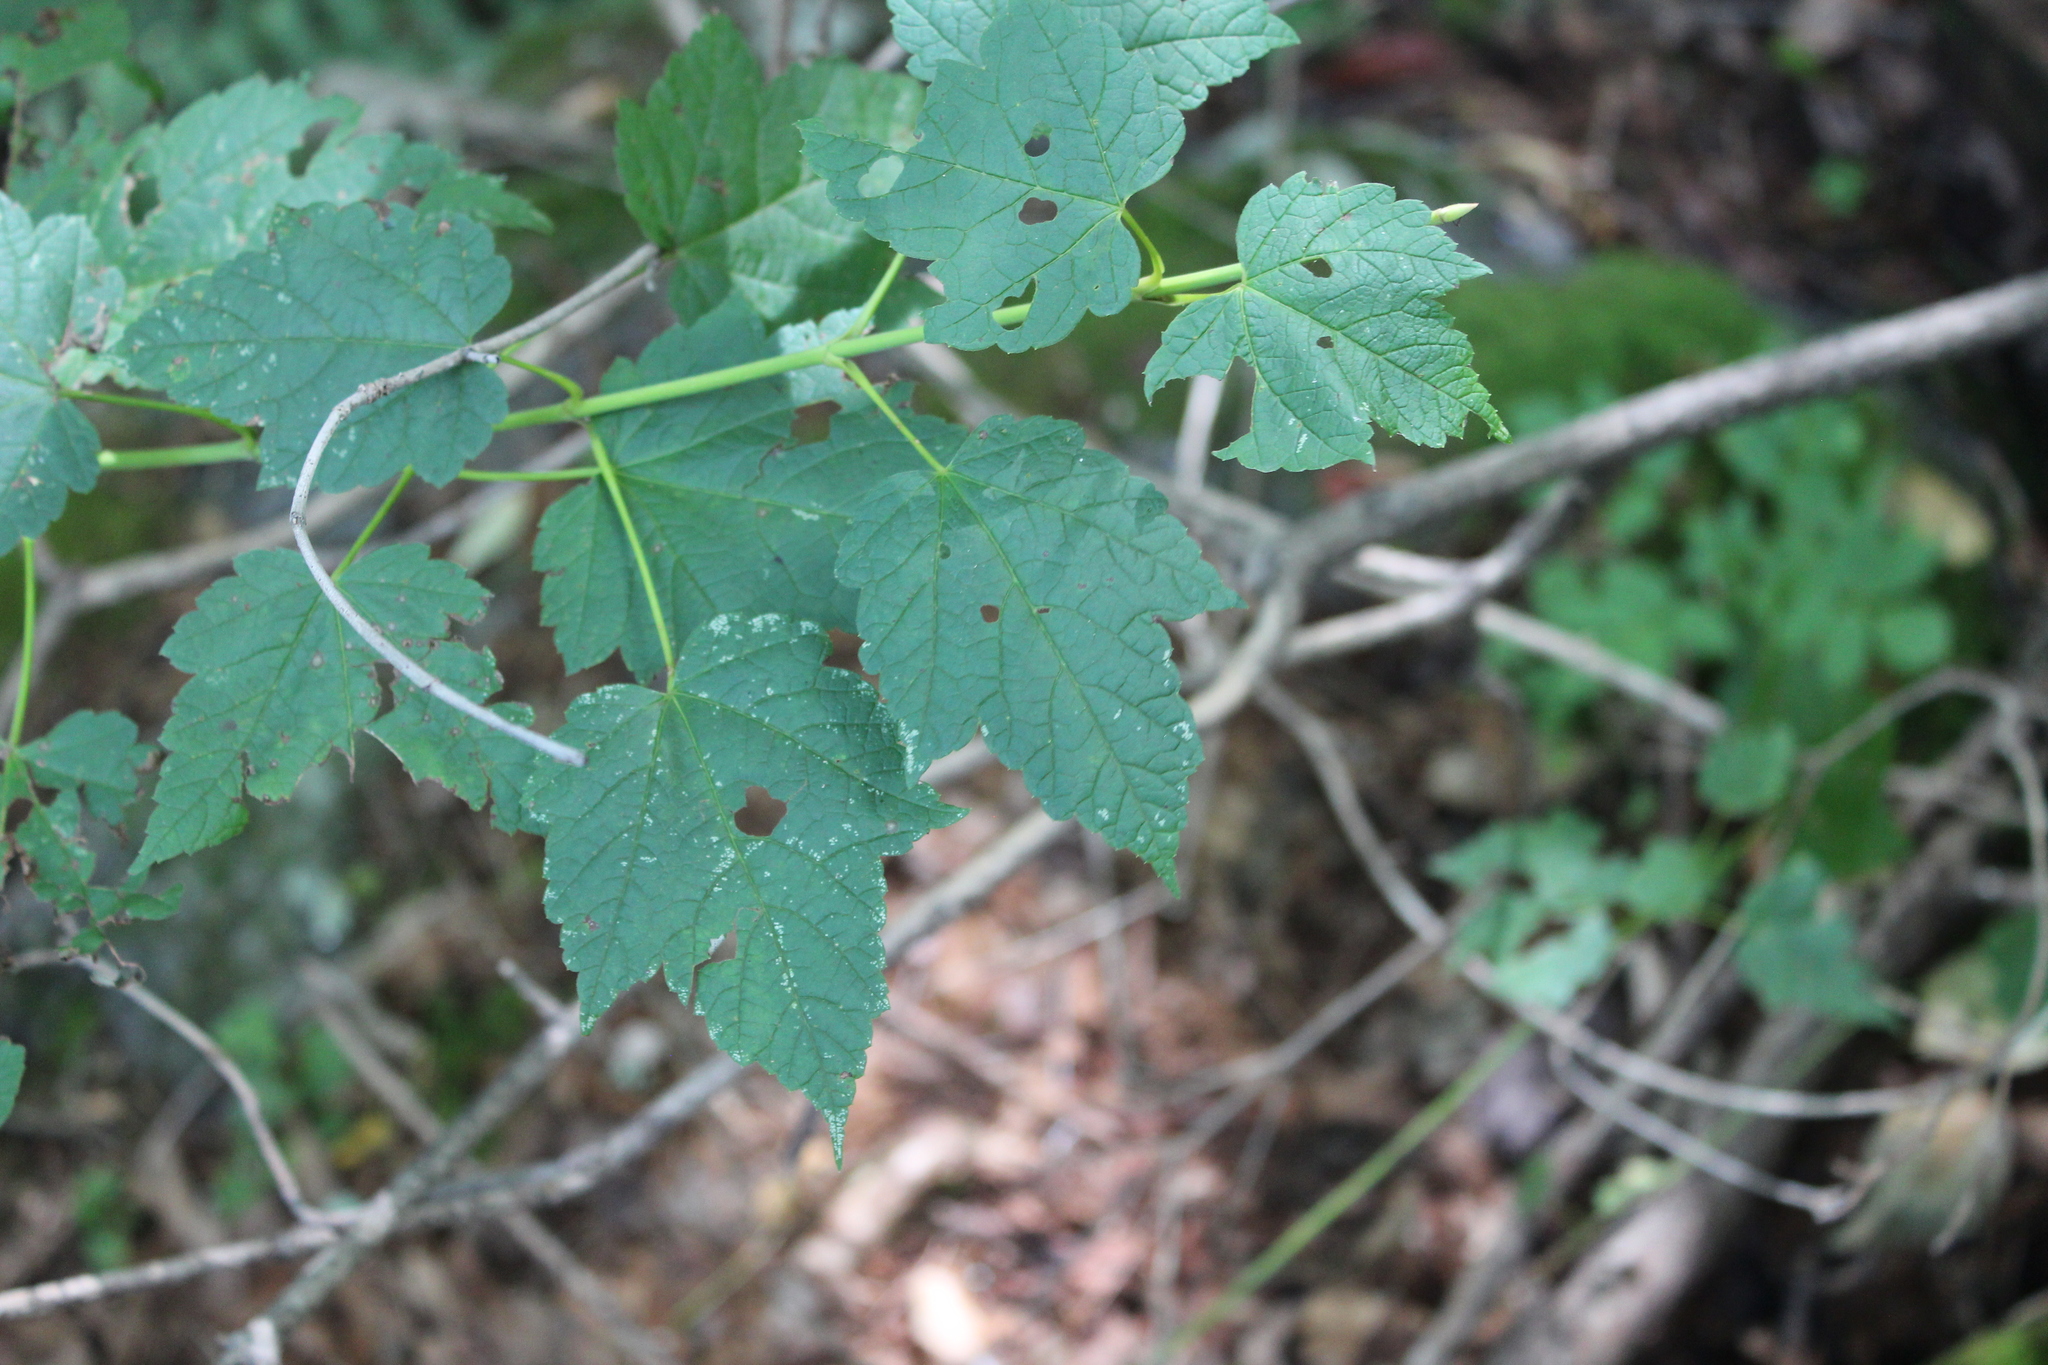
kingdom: Plantae
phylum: Tracheophyta
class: Magnoliopsida
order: Sapindales
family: Sapindaceae
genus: Acer
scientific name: Acer spicatum
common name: Mountain maple
